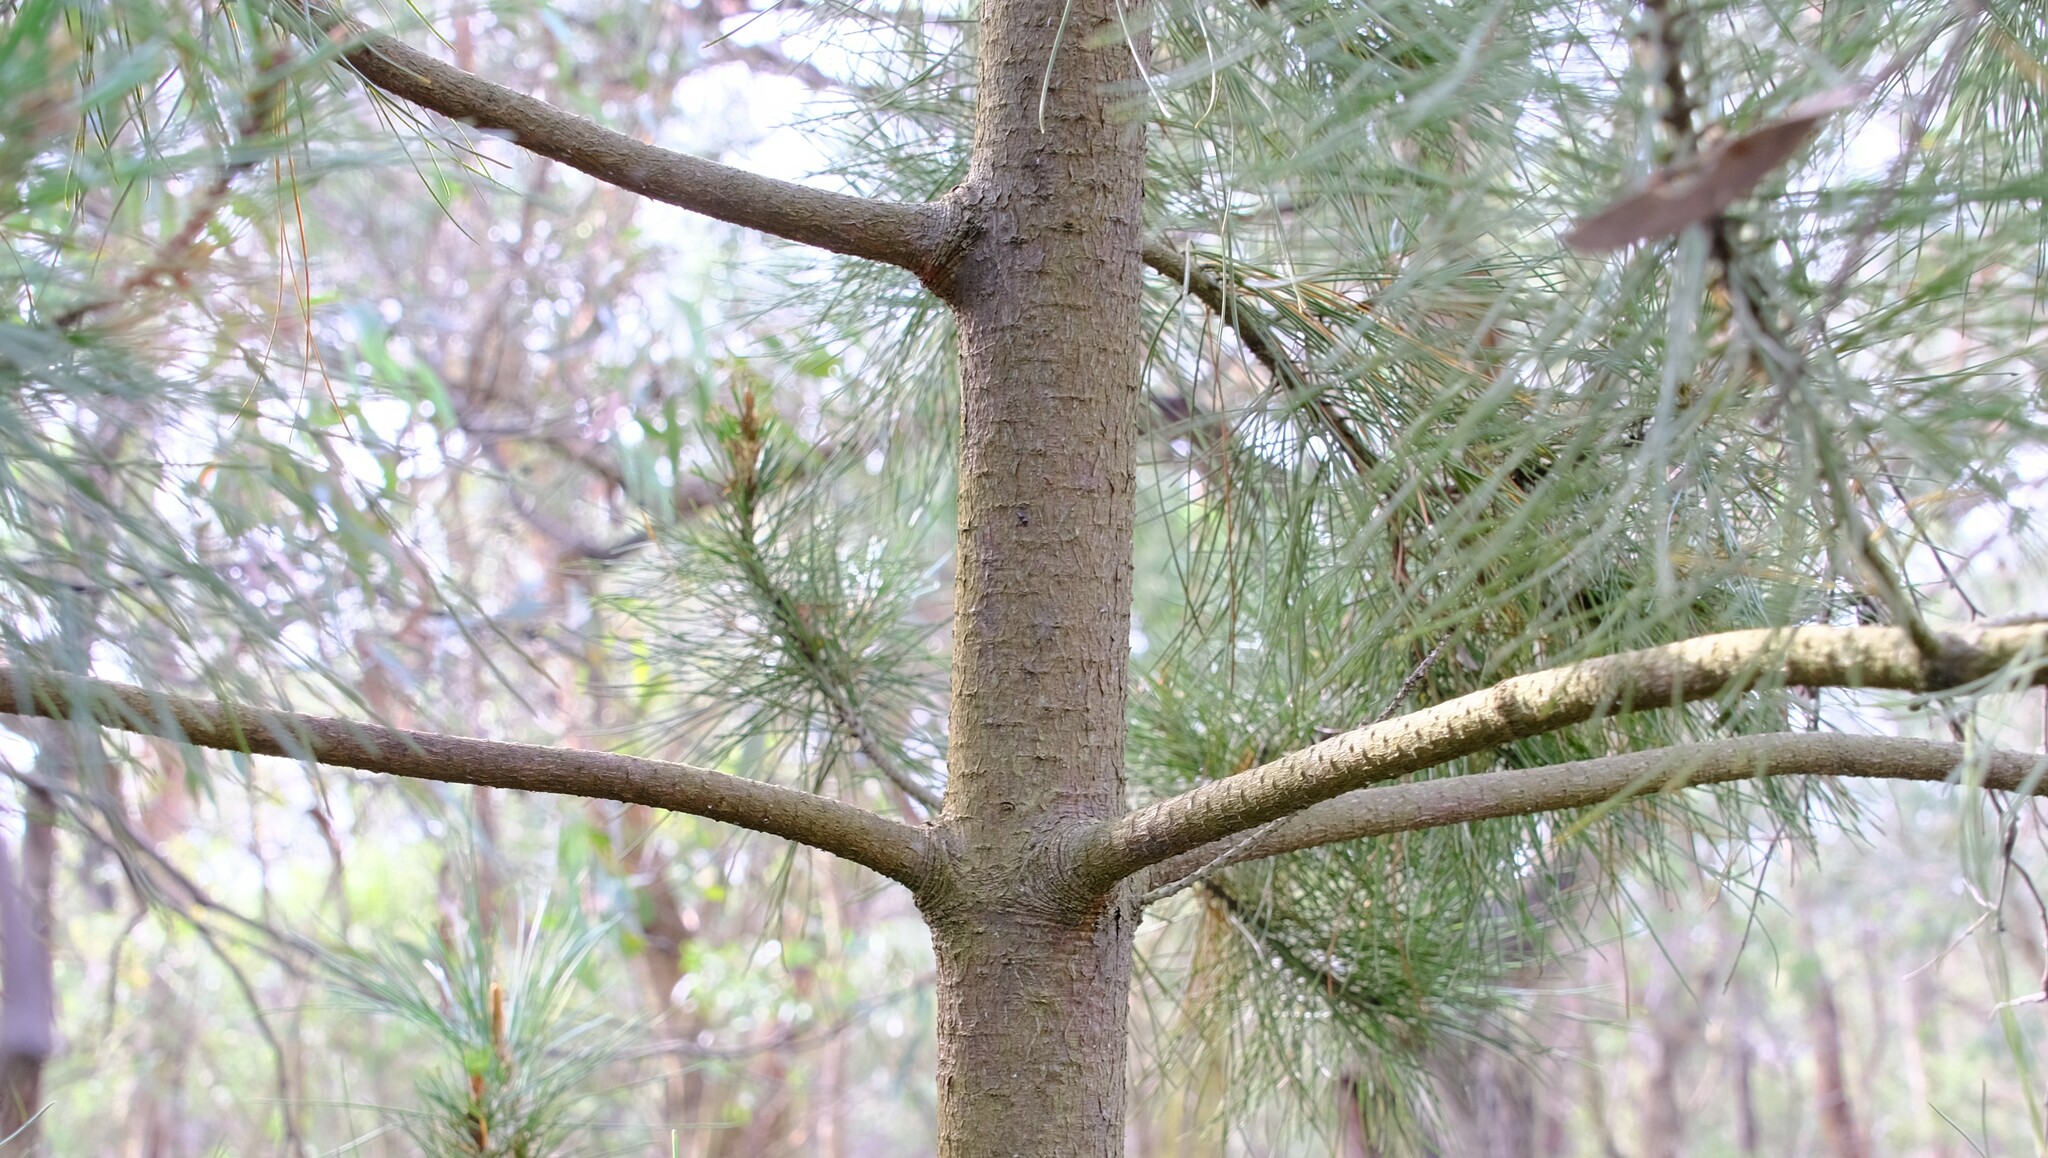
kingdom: Plantae
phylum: Tracheophyta
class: Pinopsida
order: Pinales
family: Pinaceae
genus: Pinus
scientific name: Pinus radiata
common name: Monterey pine
